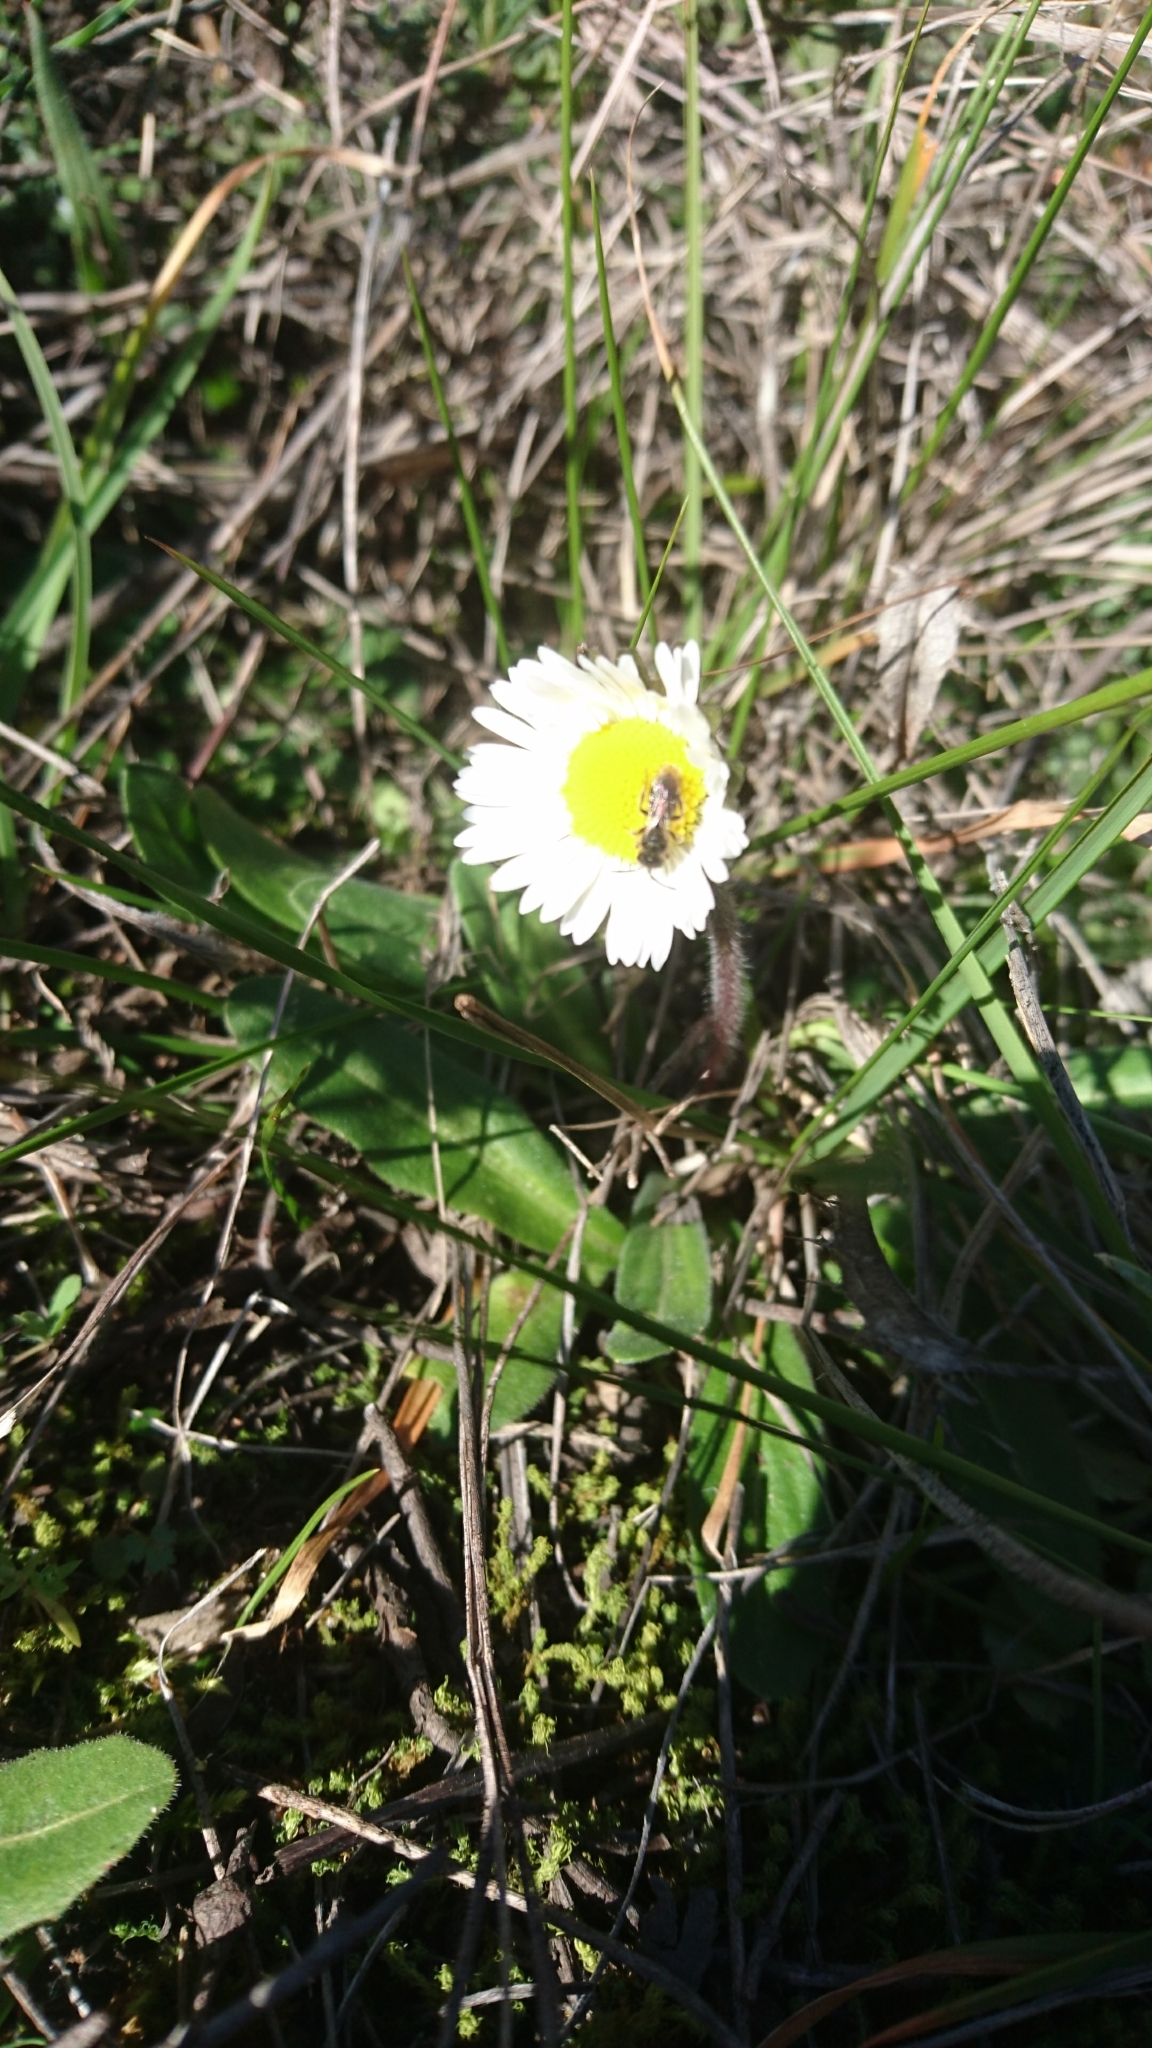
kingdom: Plantae
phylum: Tracheophyta
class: Magnoliopsida
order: Asterales
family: Asteraceae
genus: Bellis
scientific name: Bellis sylvestris
